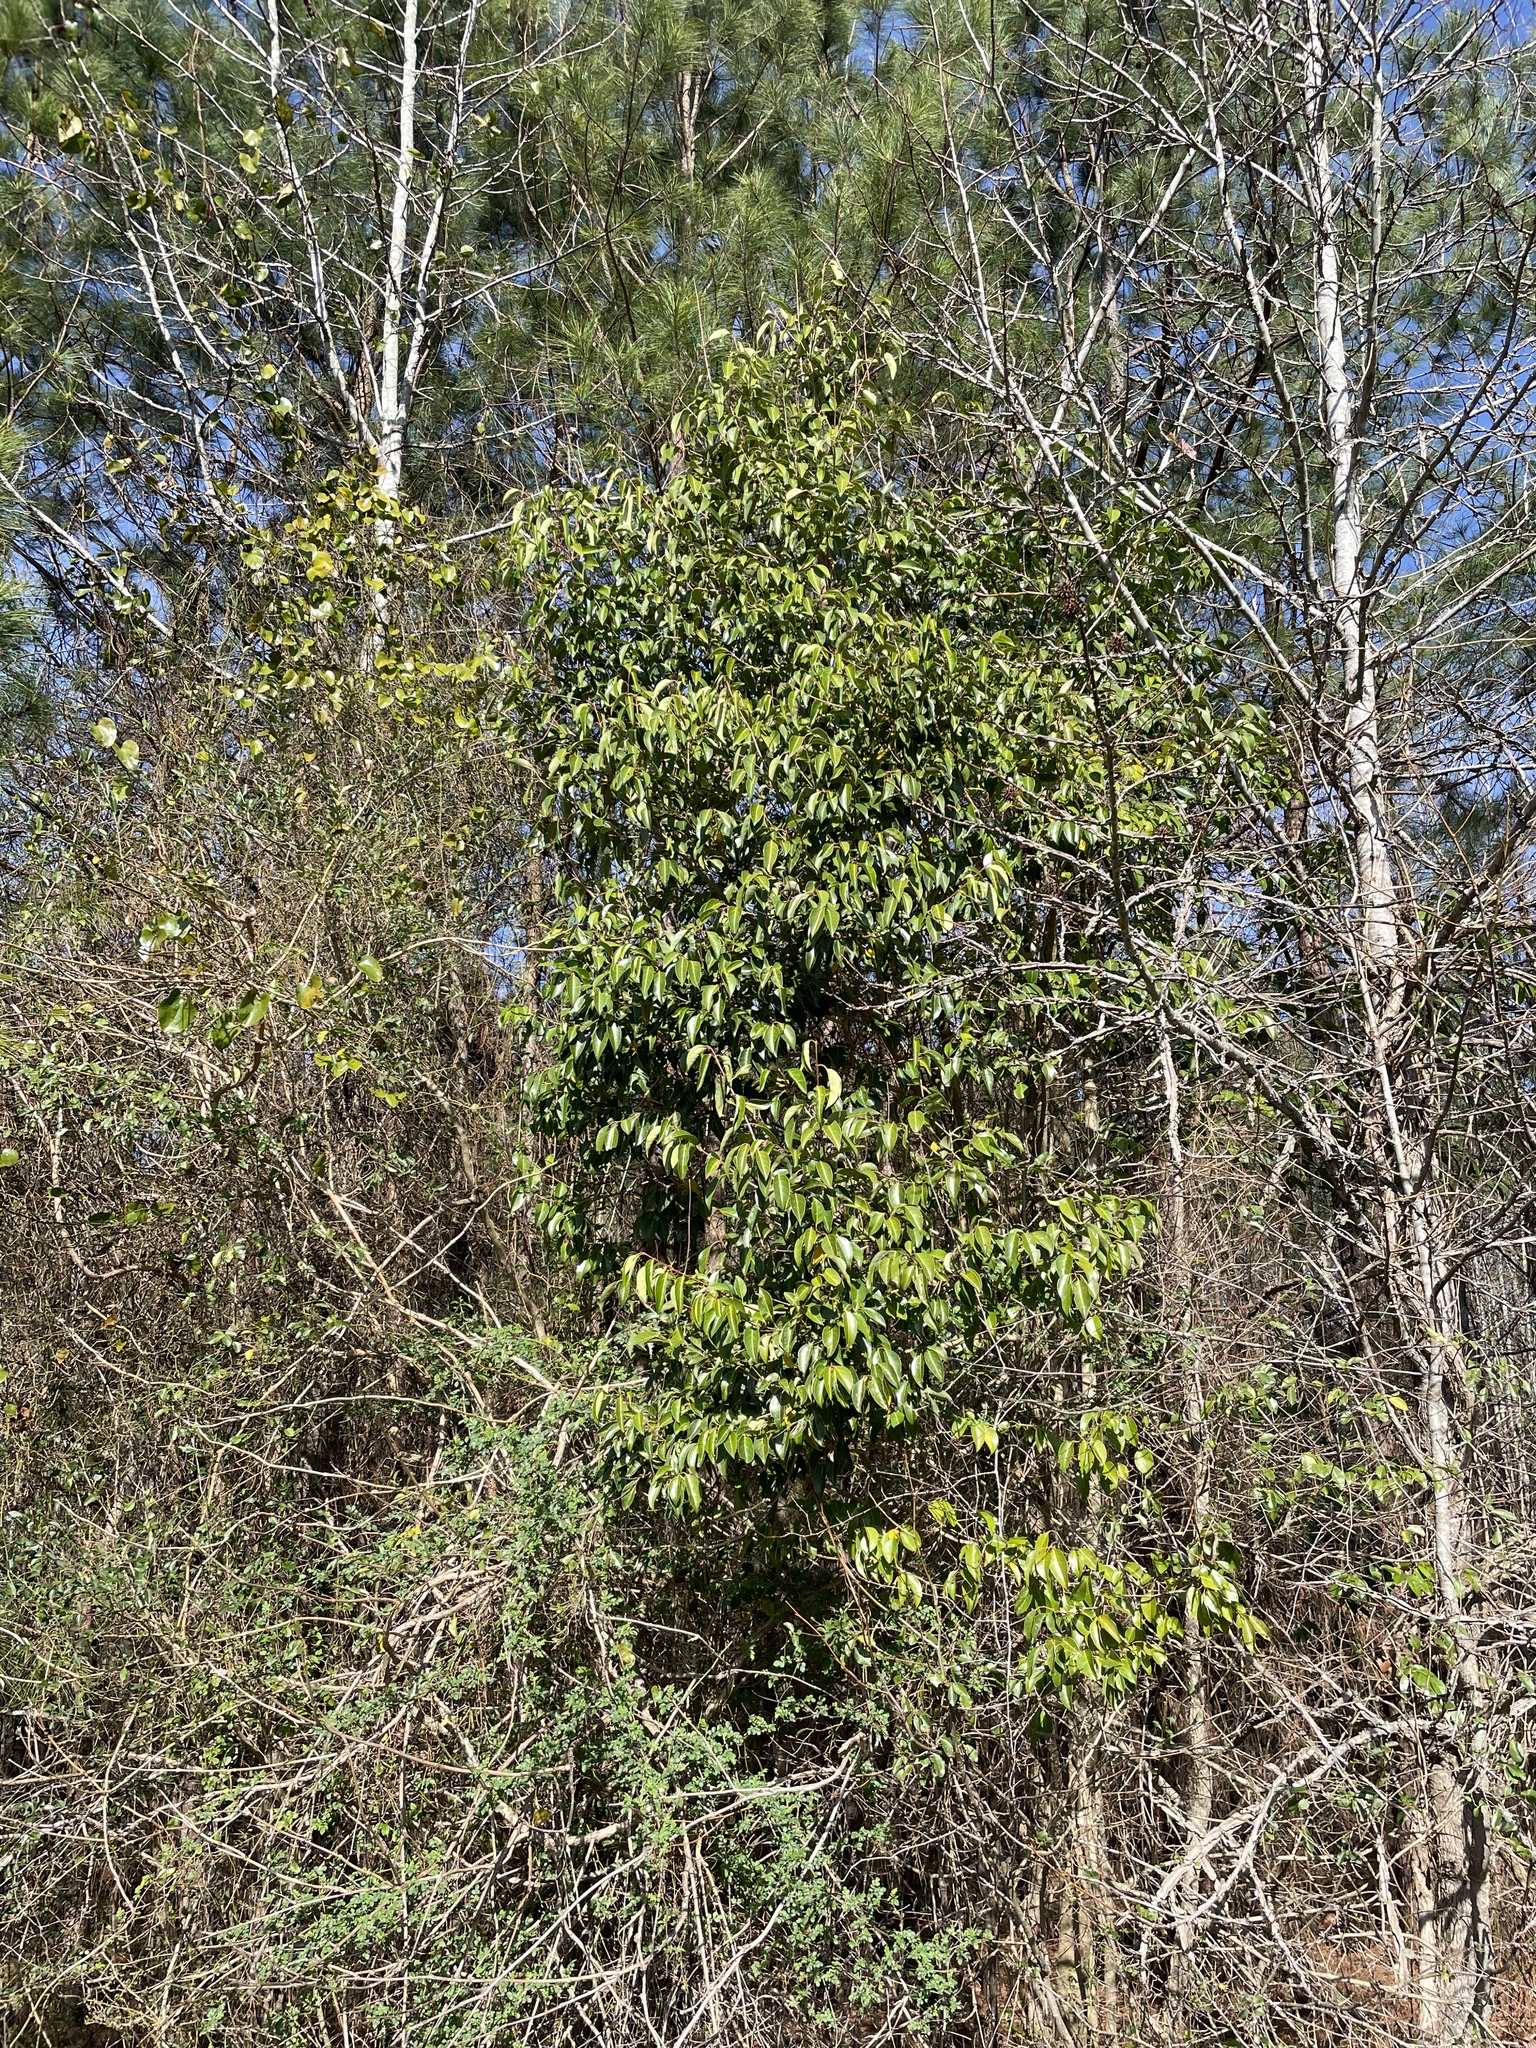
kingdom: Plantae
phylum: Tracheophyta
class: Magnoliopsida
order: Lamiales
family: Oleaceae
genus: Ligustrum
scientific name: Ligustrum lucidum
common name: Glossy privet
